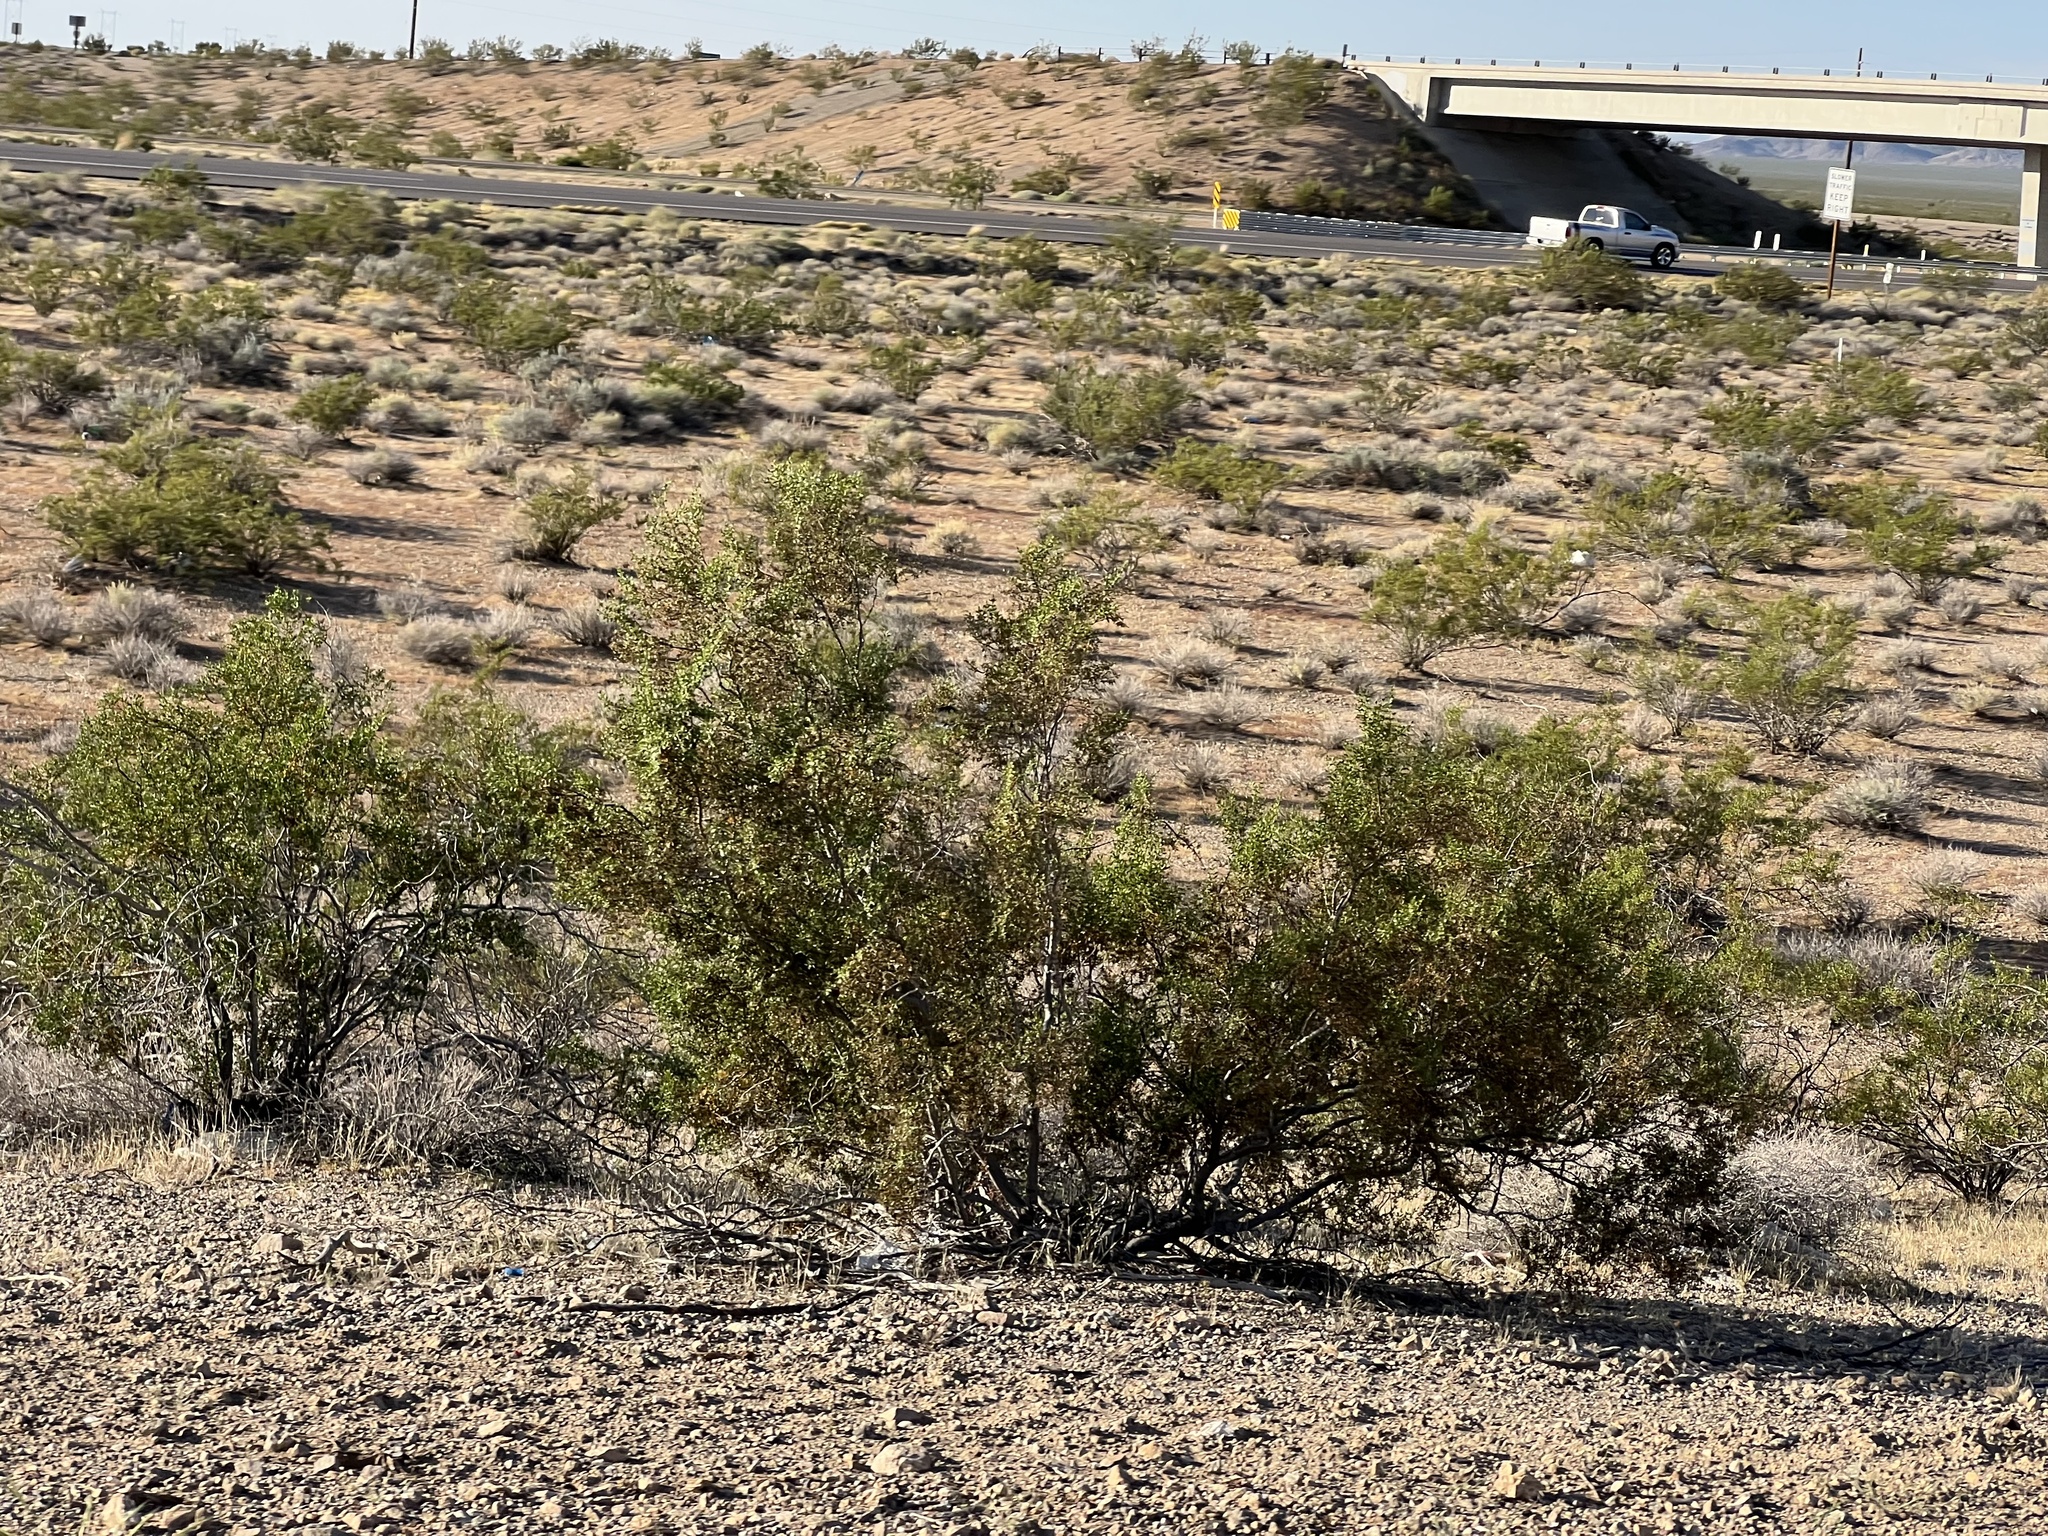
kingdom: Plantae
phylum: Tracheophyta
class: Magnoliopsida
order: Zygophyllales
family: Zygophyllaceae
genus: Larrea
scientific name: Larrea tridentata
